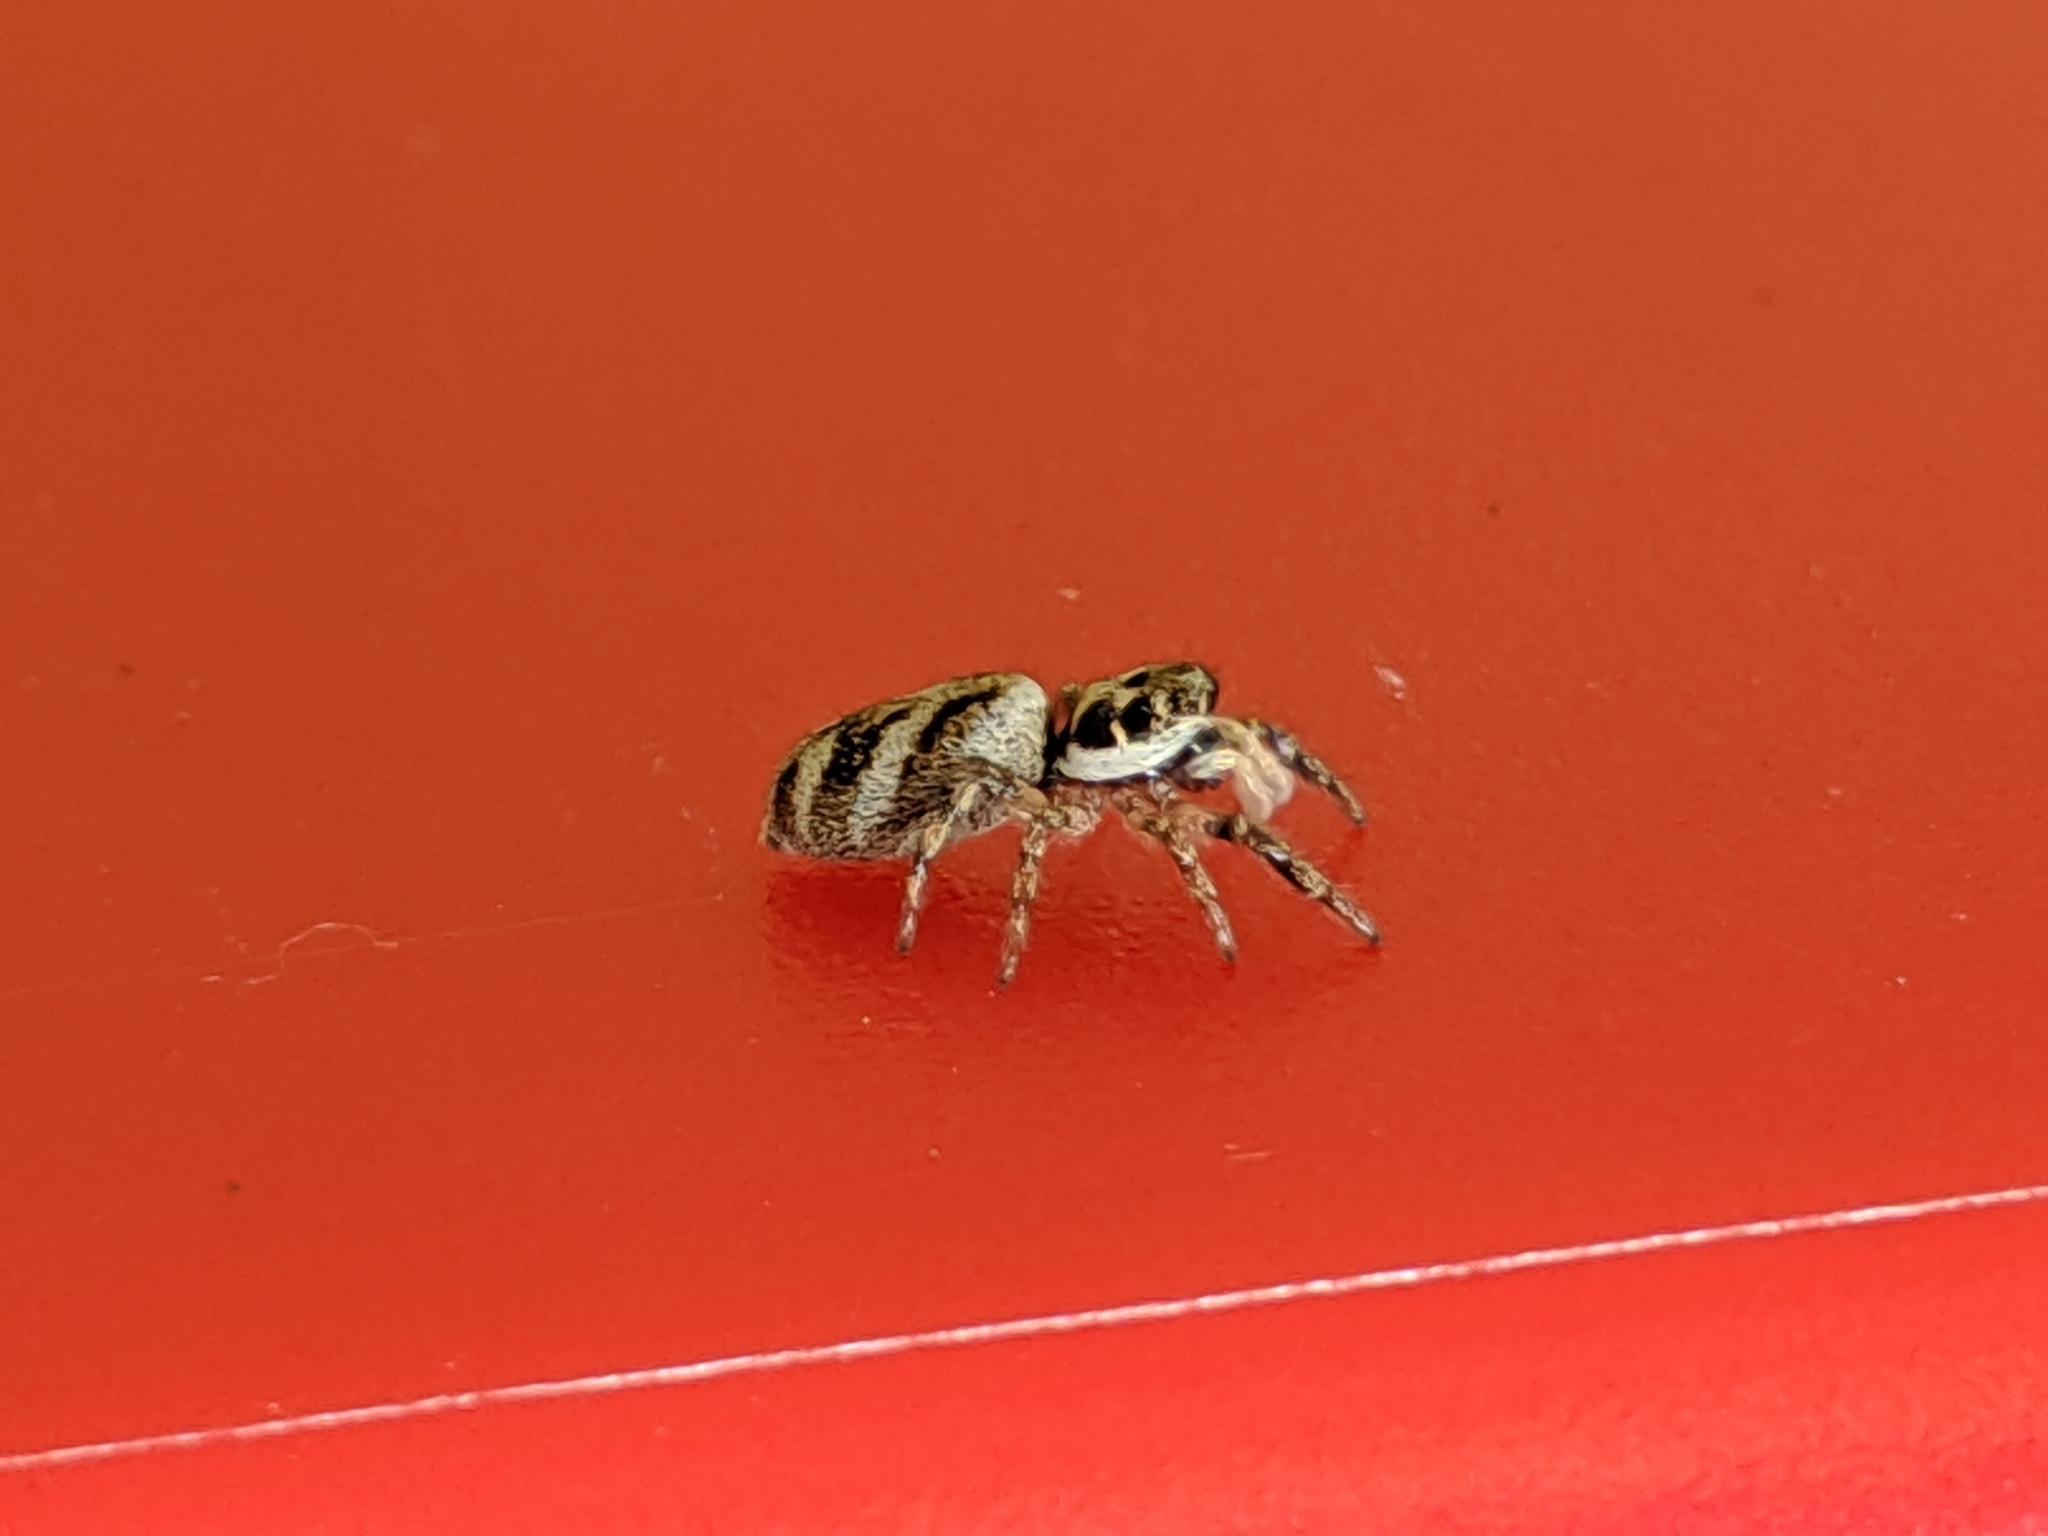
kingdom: Animalia
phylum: Arthropoda
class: Arachnida
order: Araneae
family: Salticidae
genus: Salticus
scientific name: Salticus scenicus
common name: Zebra jumper
